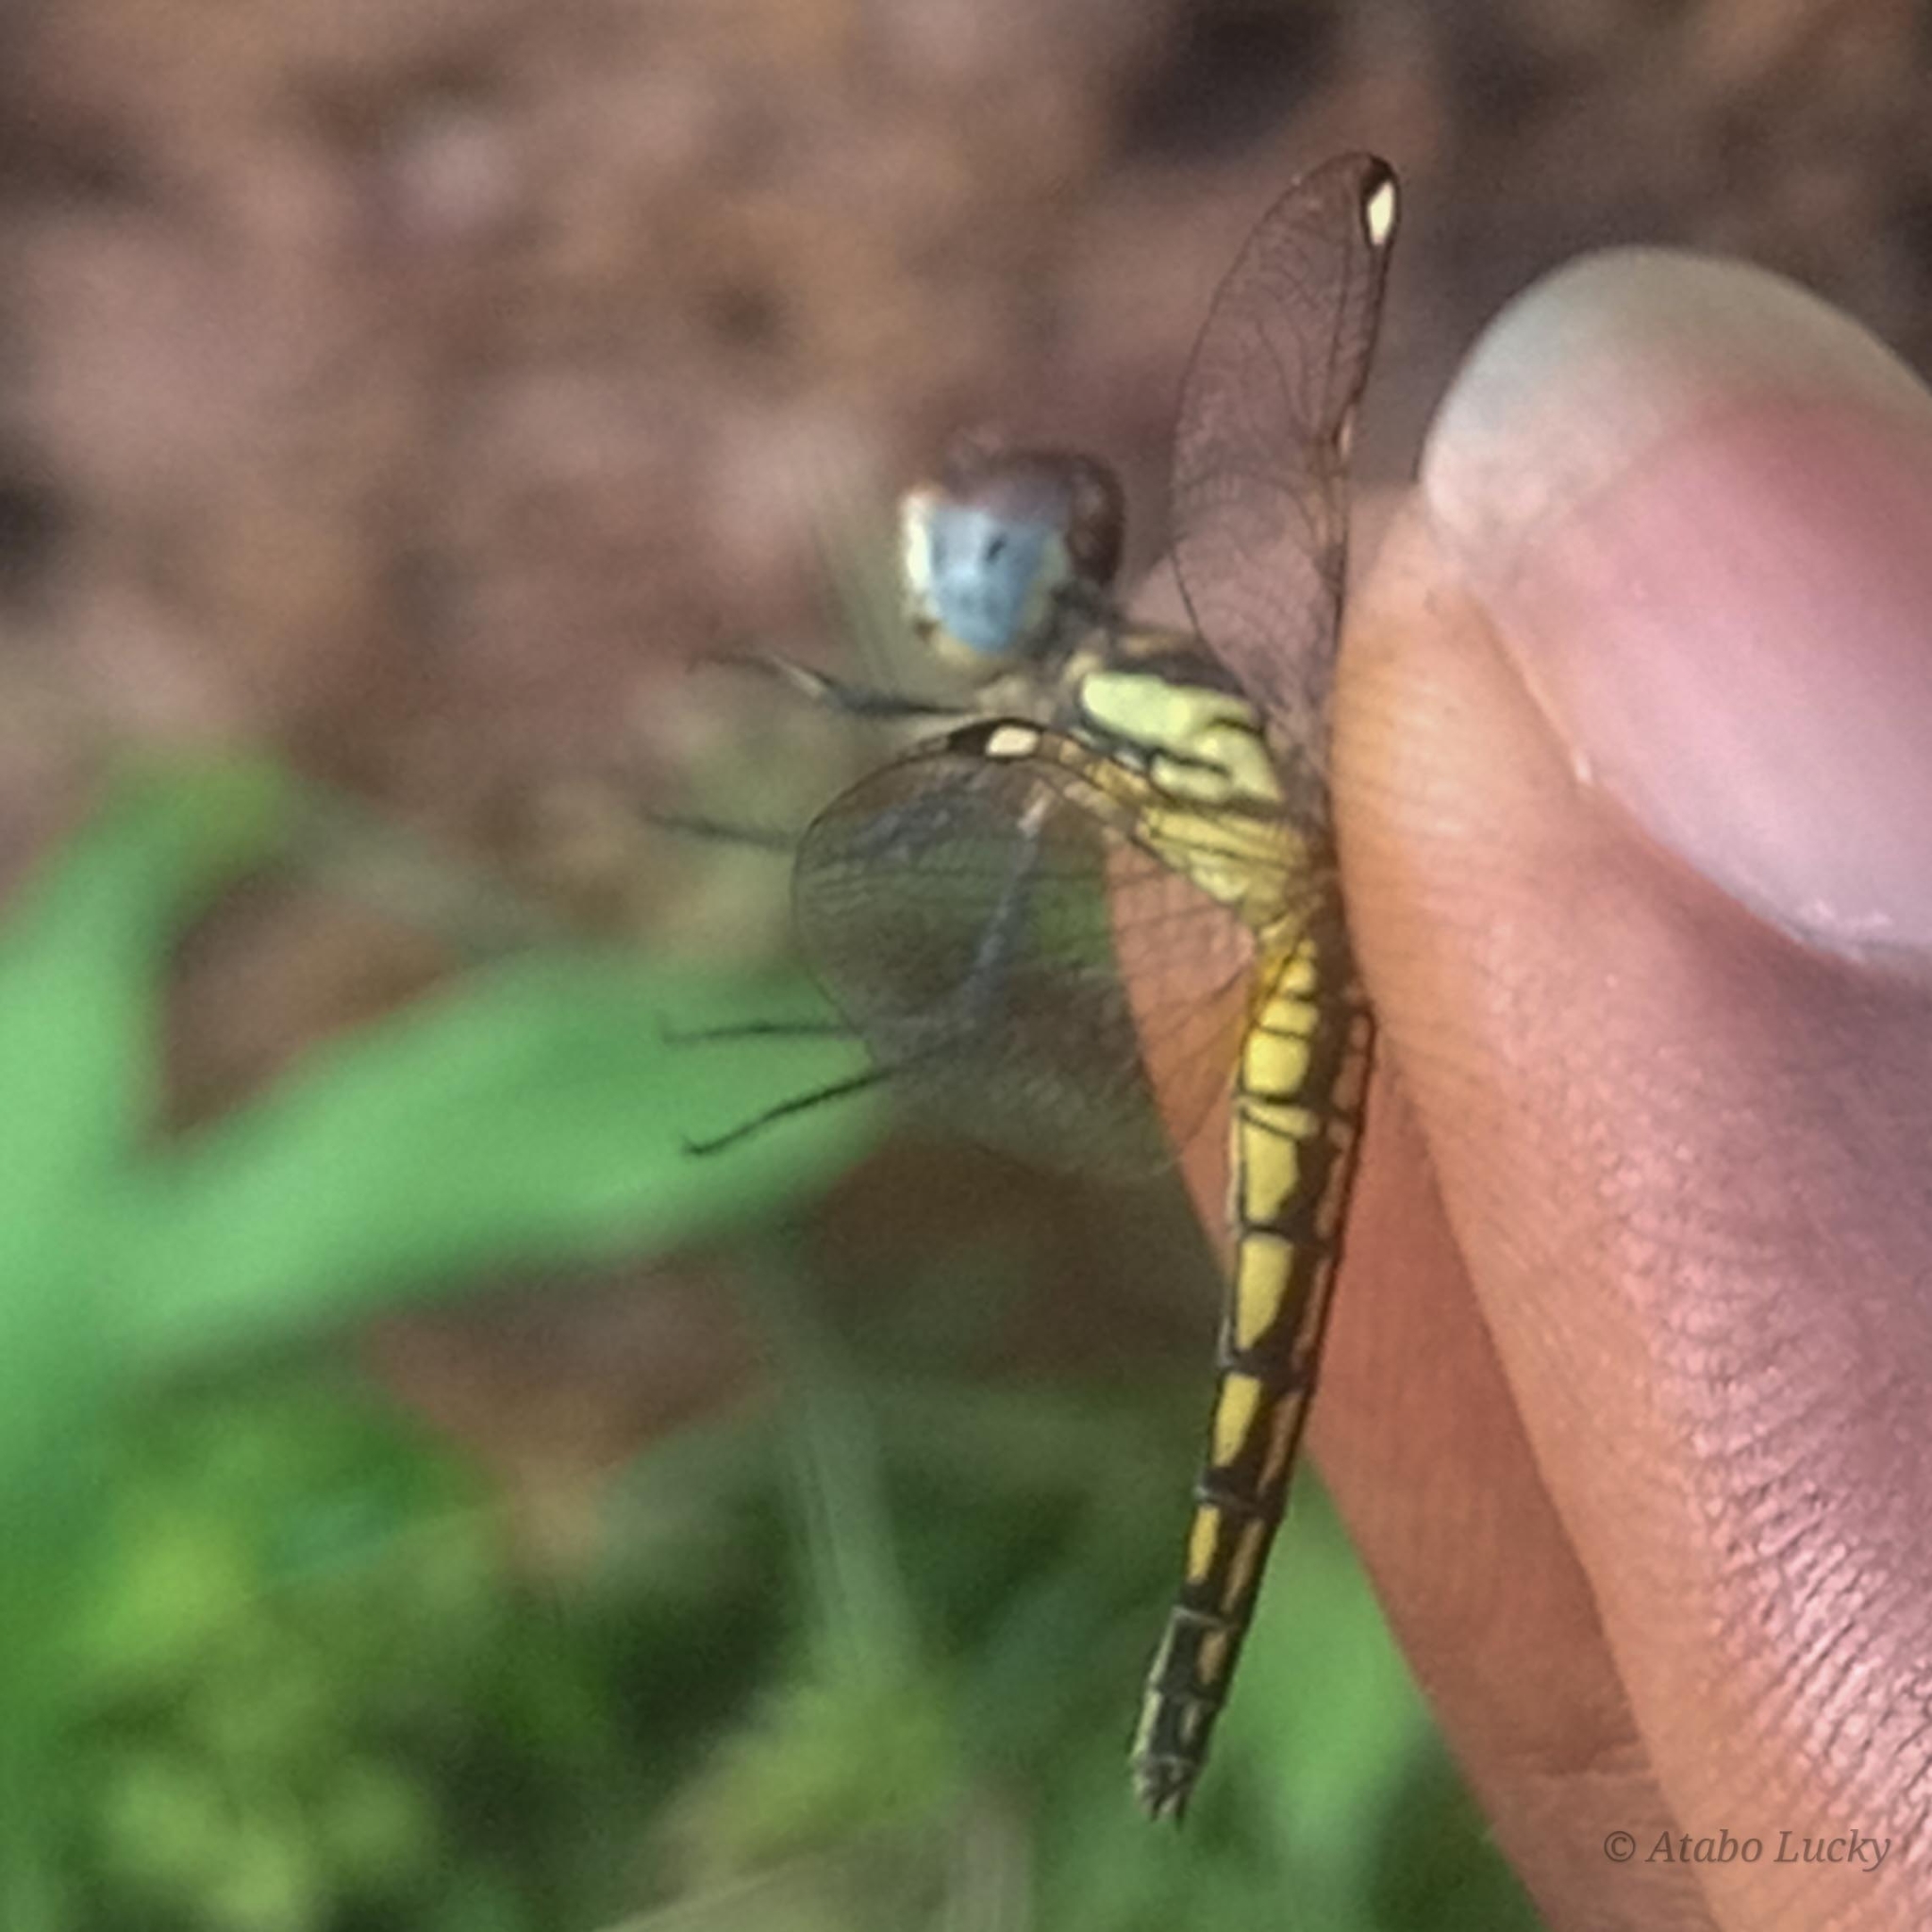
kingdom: Animalia
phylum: Arthropoda
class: Insecta
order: Odonata
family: Libellulidae
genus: Palpopleura
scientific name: Palpopleura deceptor
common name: Deceptive widow
